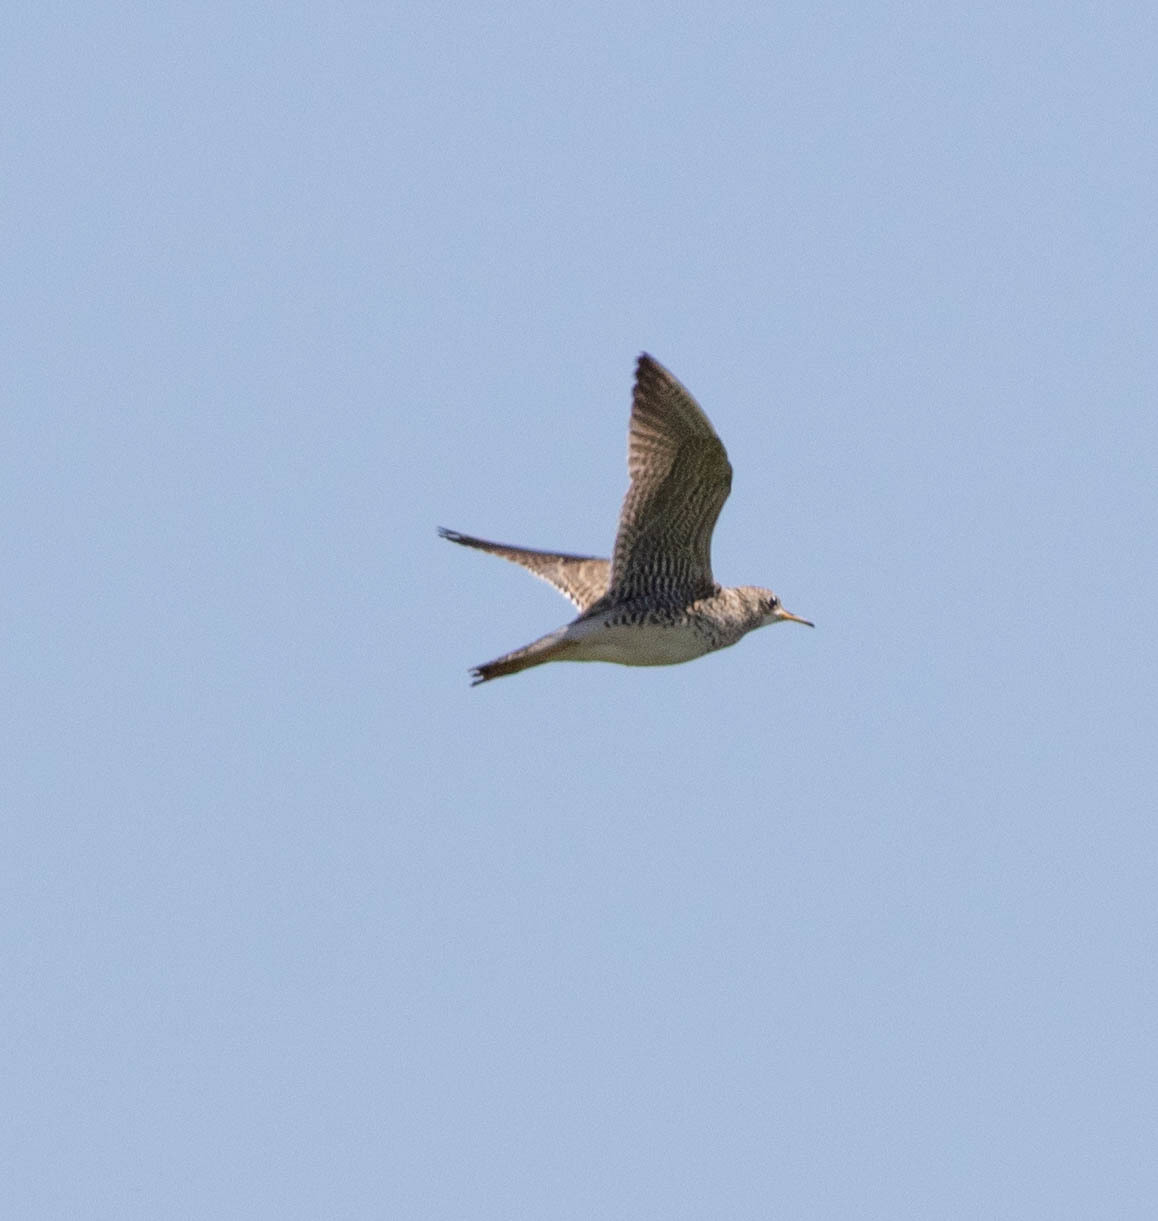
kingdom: Animalia
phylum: Chordata
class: Aves
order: Charadriiformes
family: Scolopacidae
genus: Bartramia
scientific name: Bartramia longicauda
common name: Upland sandpiper
